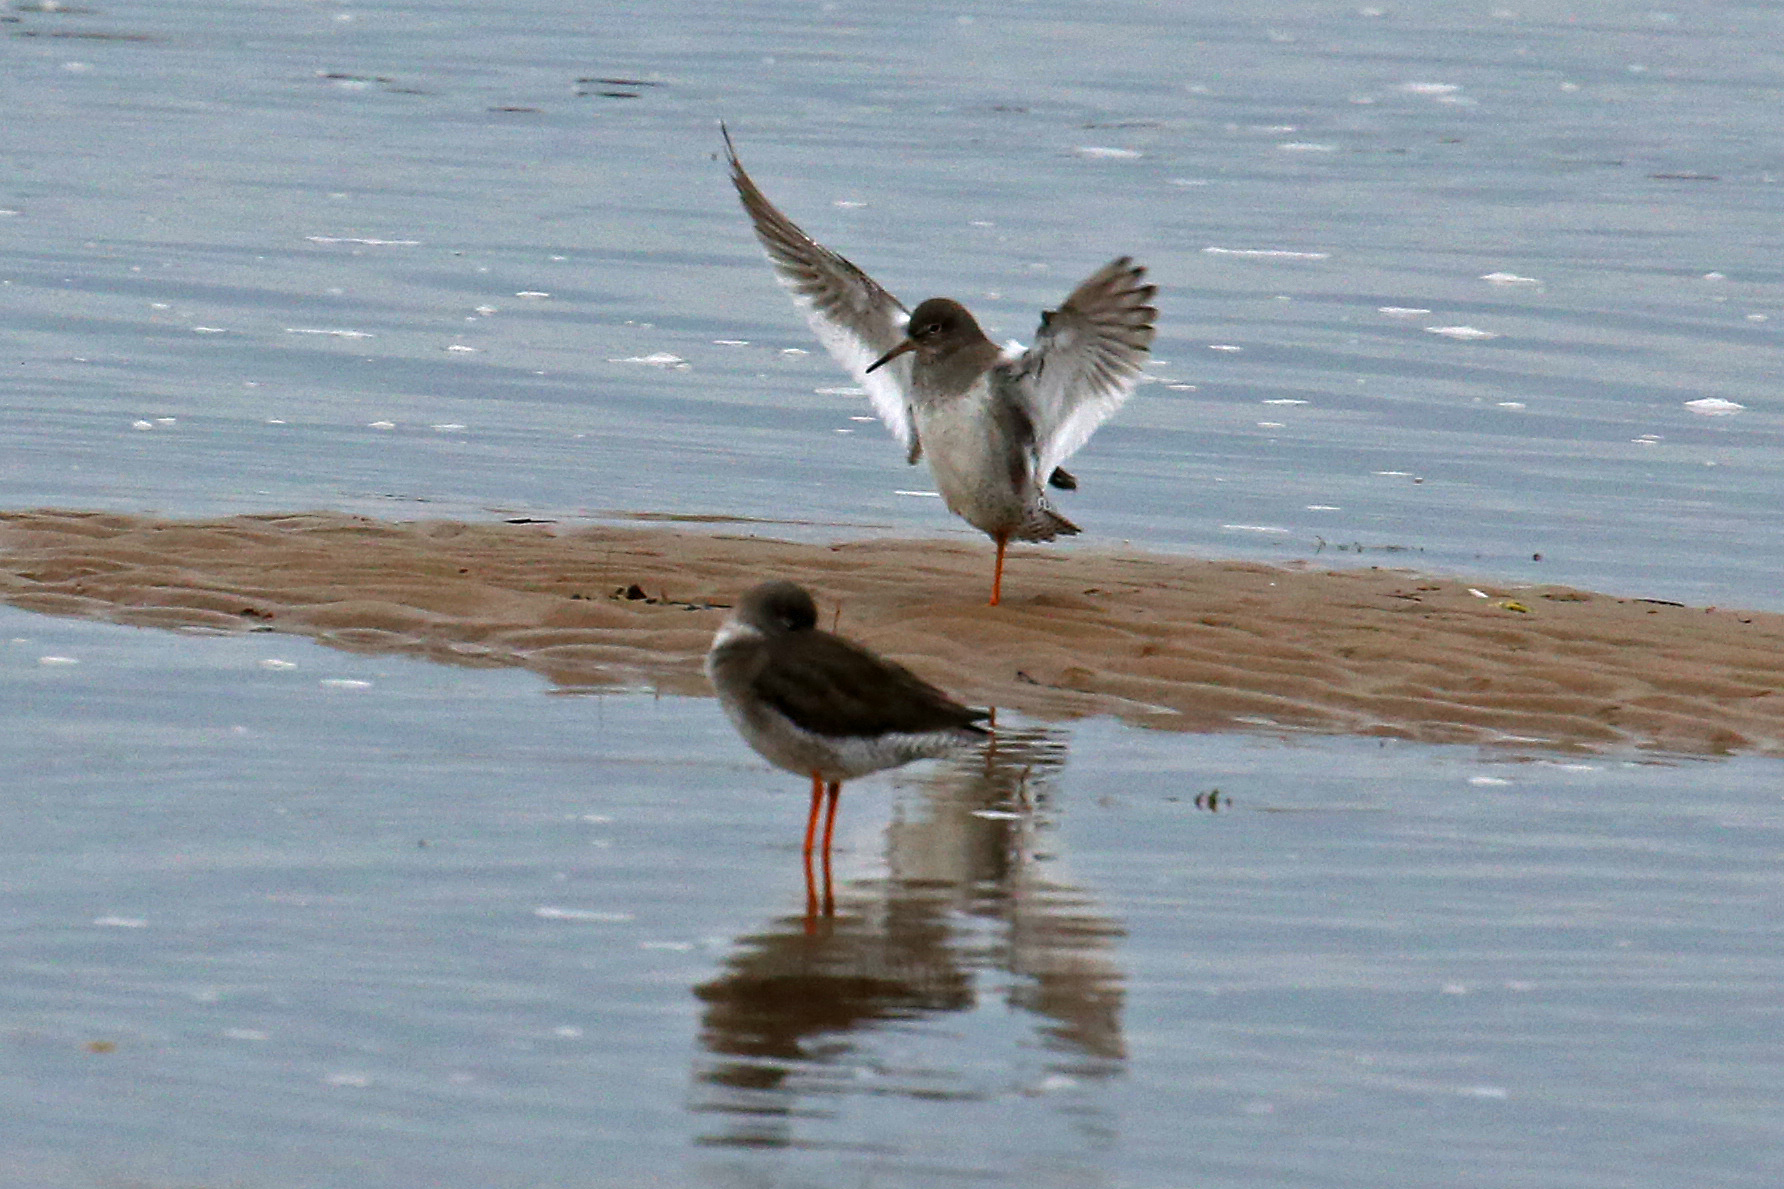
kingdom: Animalia
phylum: Chordata
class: Aves
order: Charadriiformes
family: Scolopacidae
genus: Tringa
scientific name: Tringa totanus
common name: Common redshank
